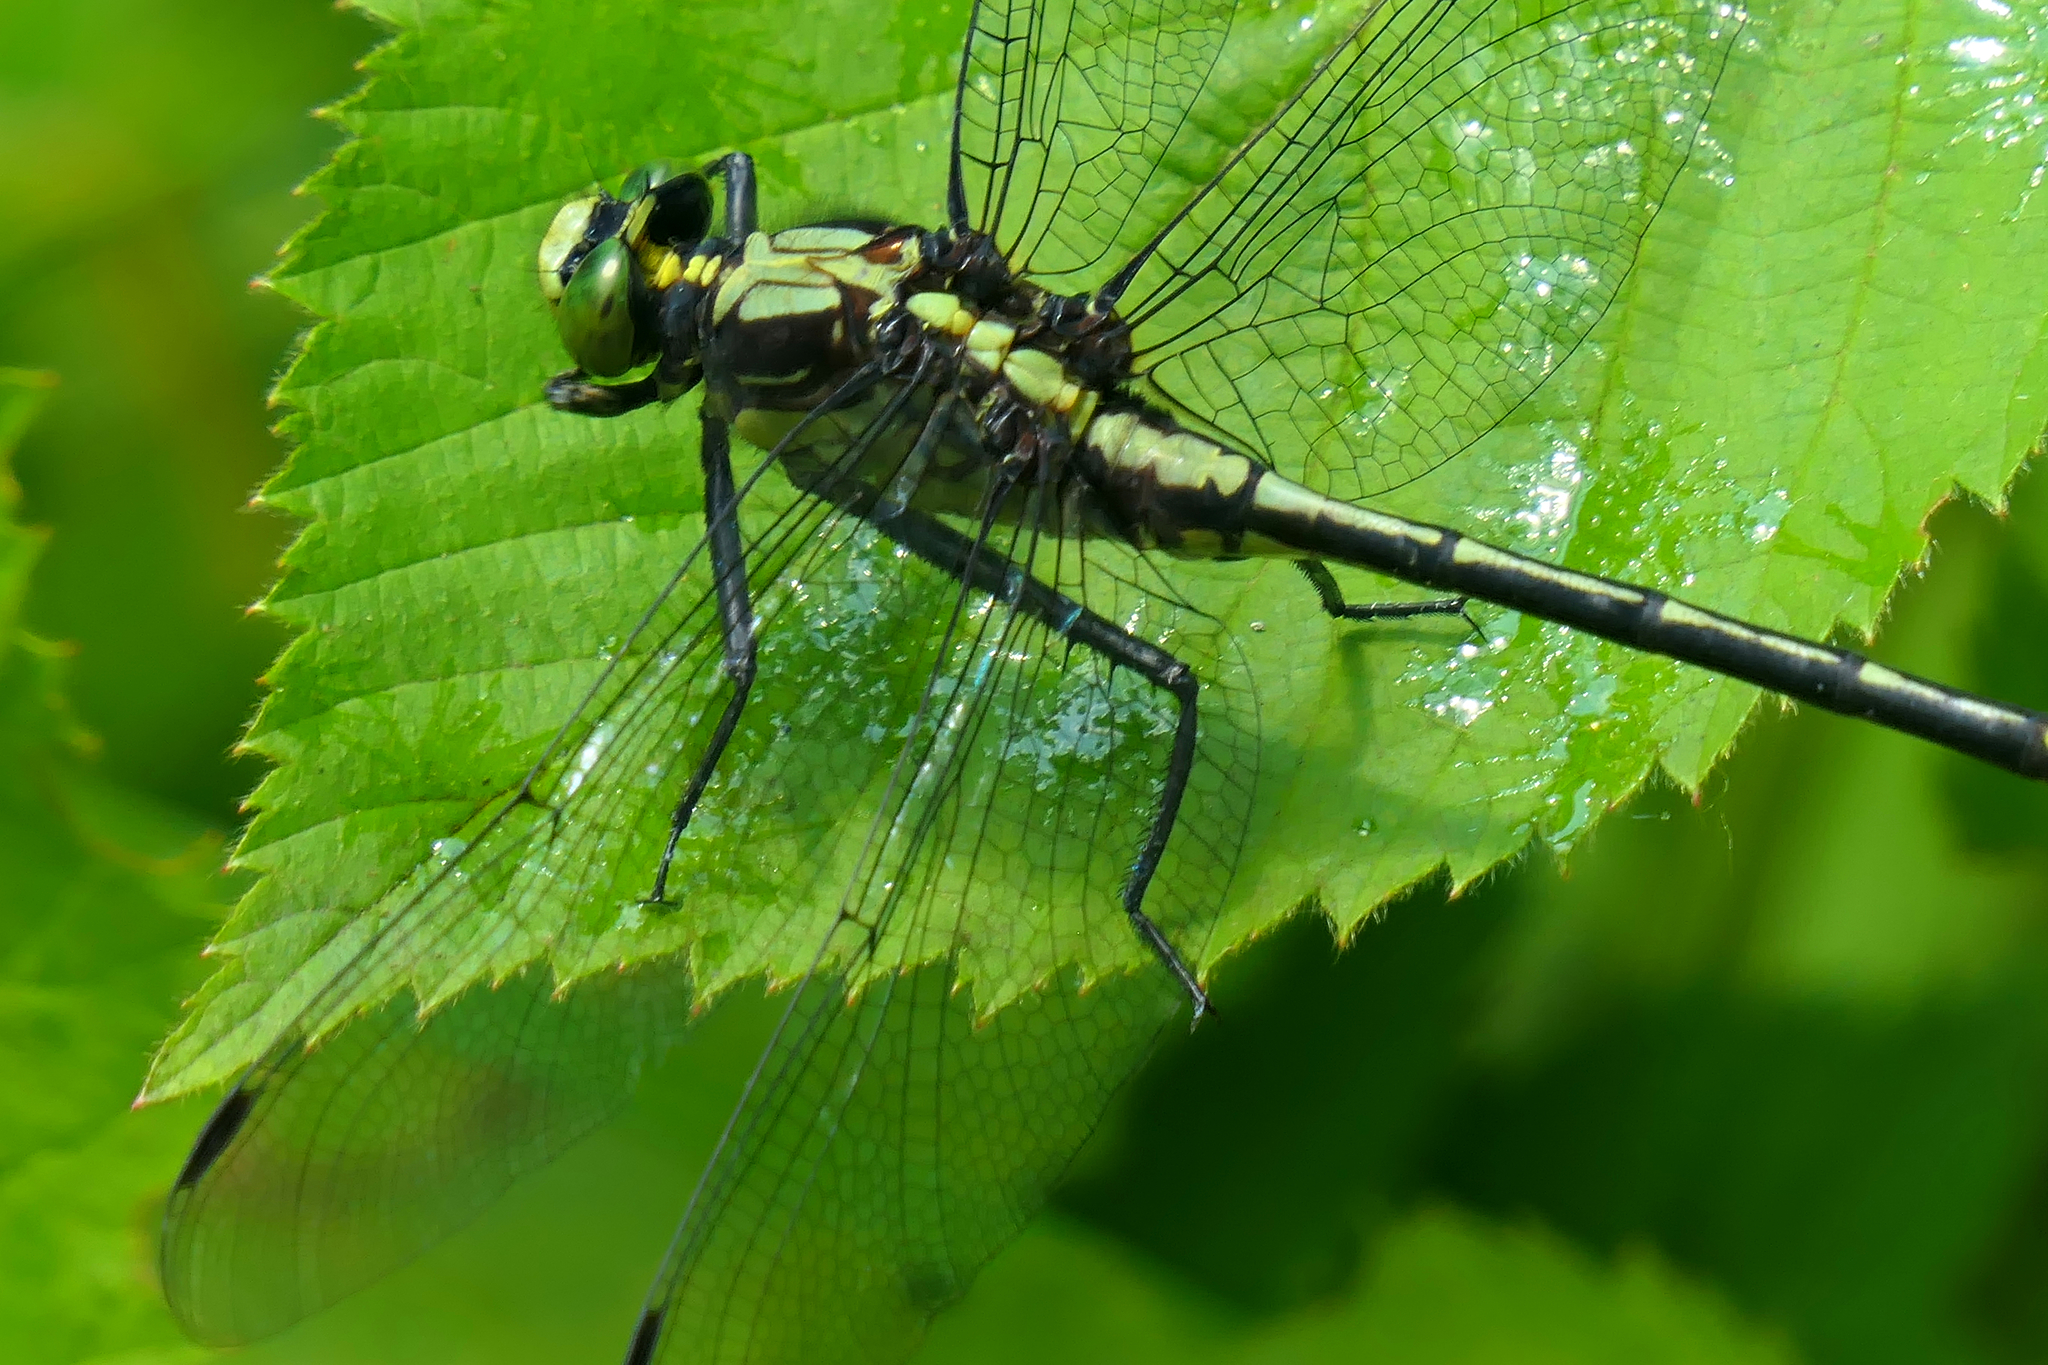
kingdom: Animalia
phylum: Arthropoda
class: Insecta
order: Odonata
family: Gomphidae
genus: Dromogomphus
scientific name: Dromogomphus spinosus
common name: Black-shouldered spinyleg
